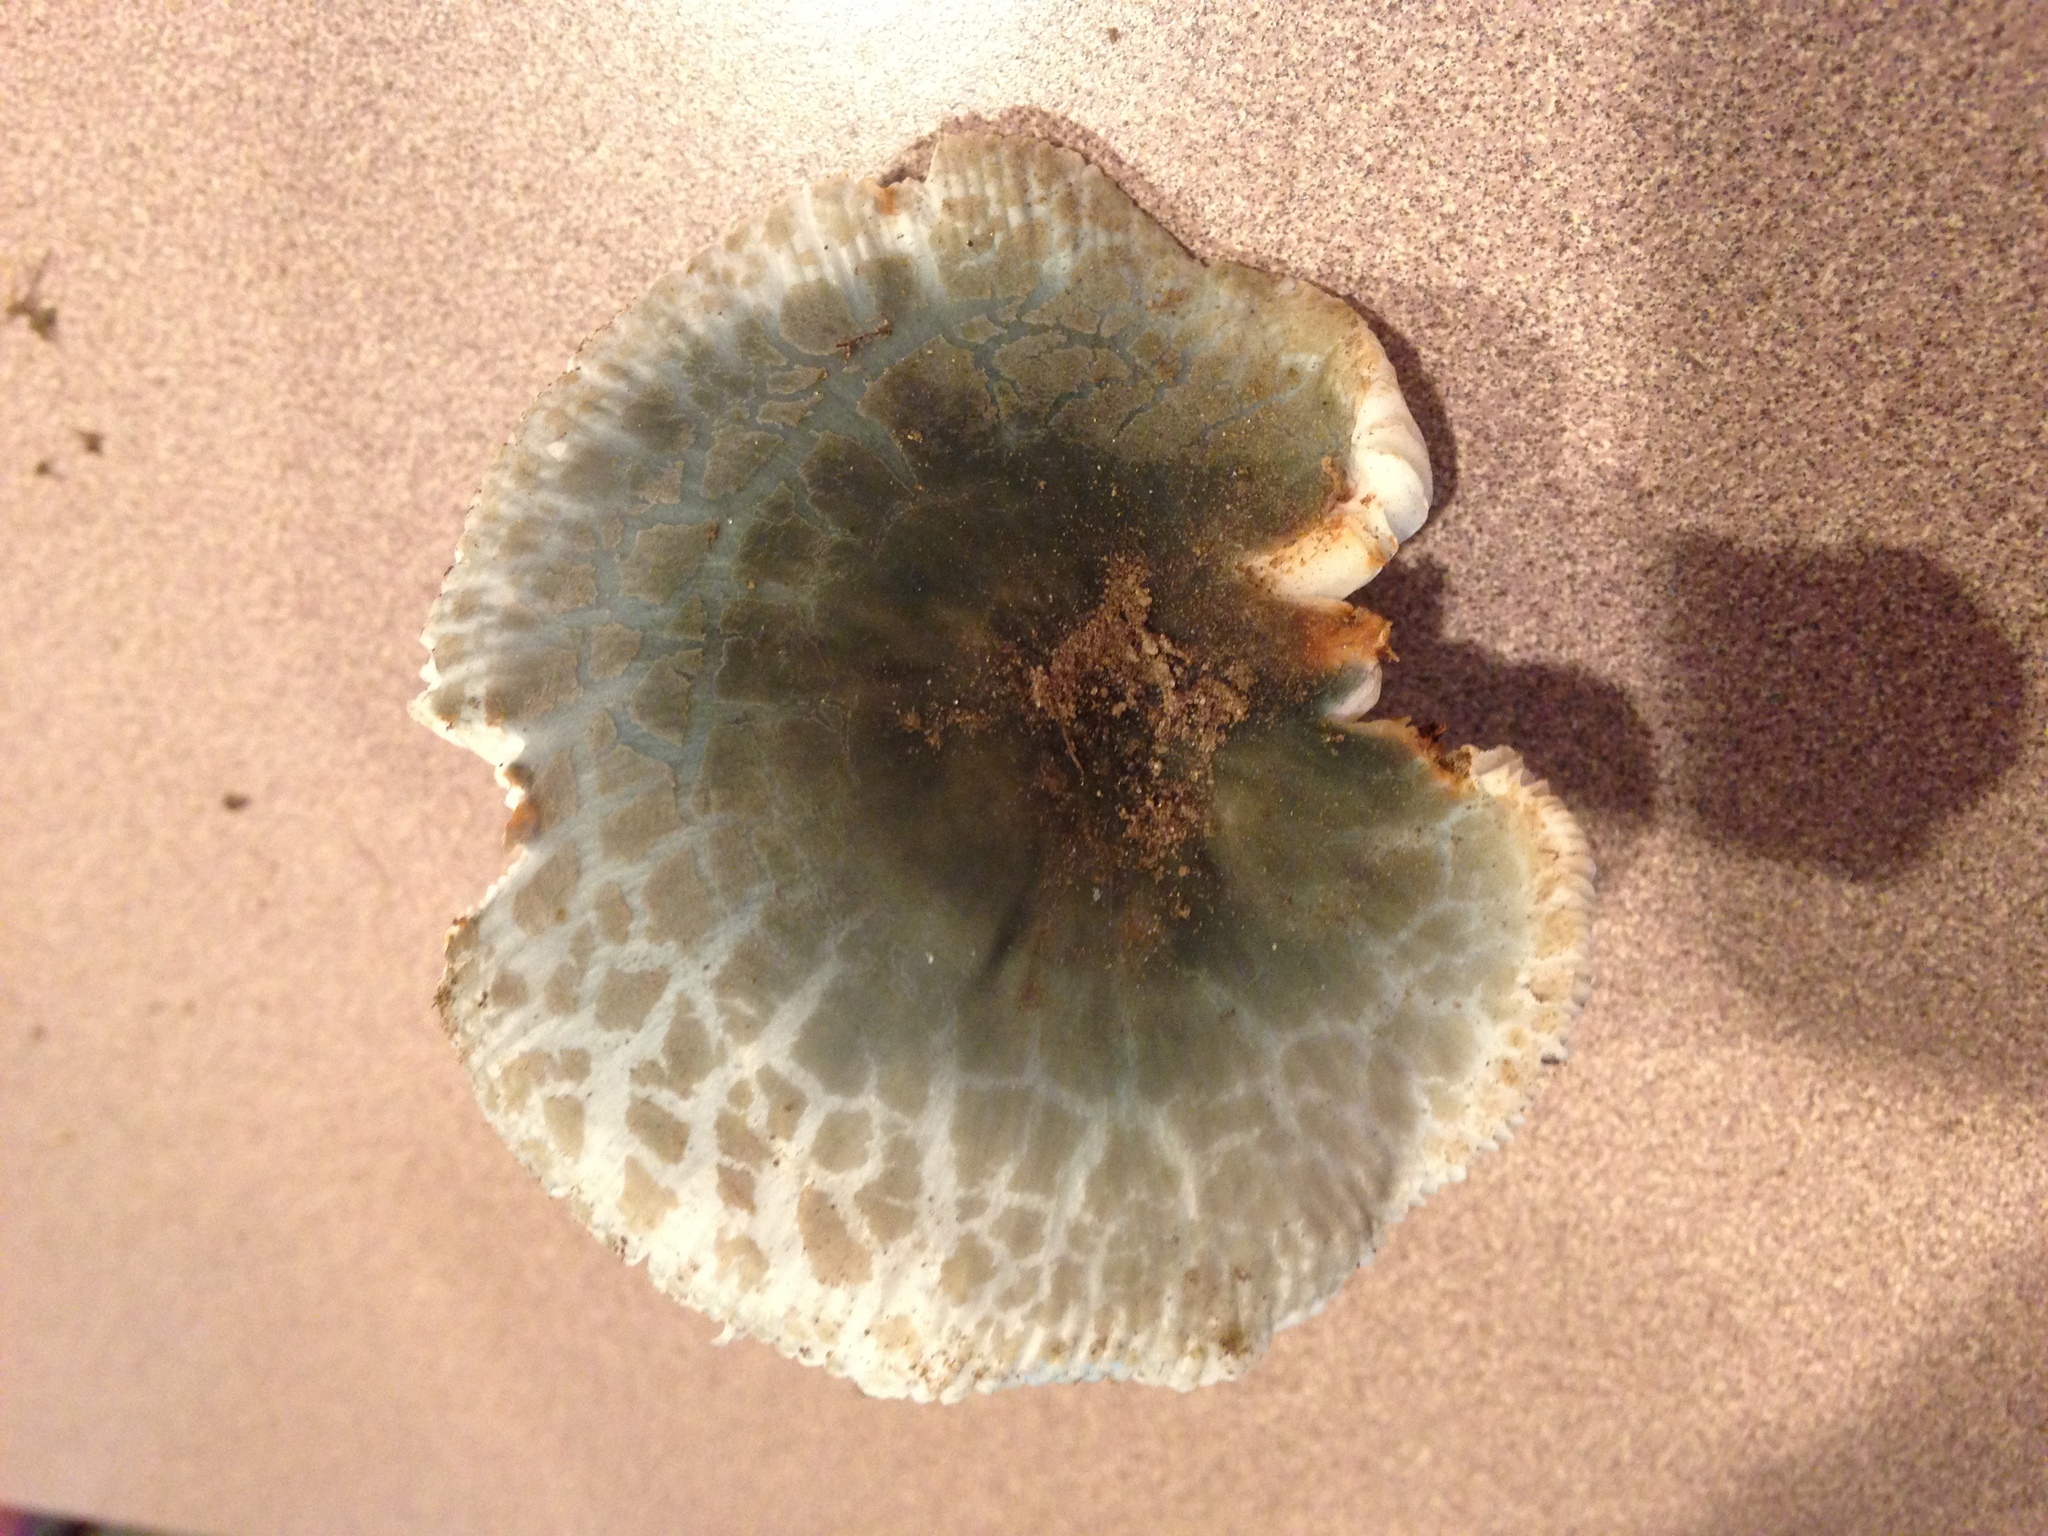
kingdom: Fungi
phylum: Basidiomycota
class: Agaricomycetes
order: Russulales
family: Russulaceae
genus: Russula
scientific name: Russula parvovirescens
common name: Blue-green cracking russula
